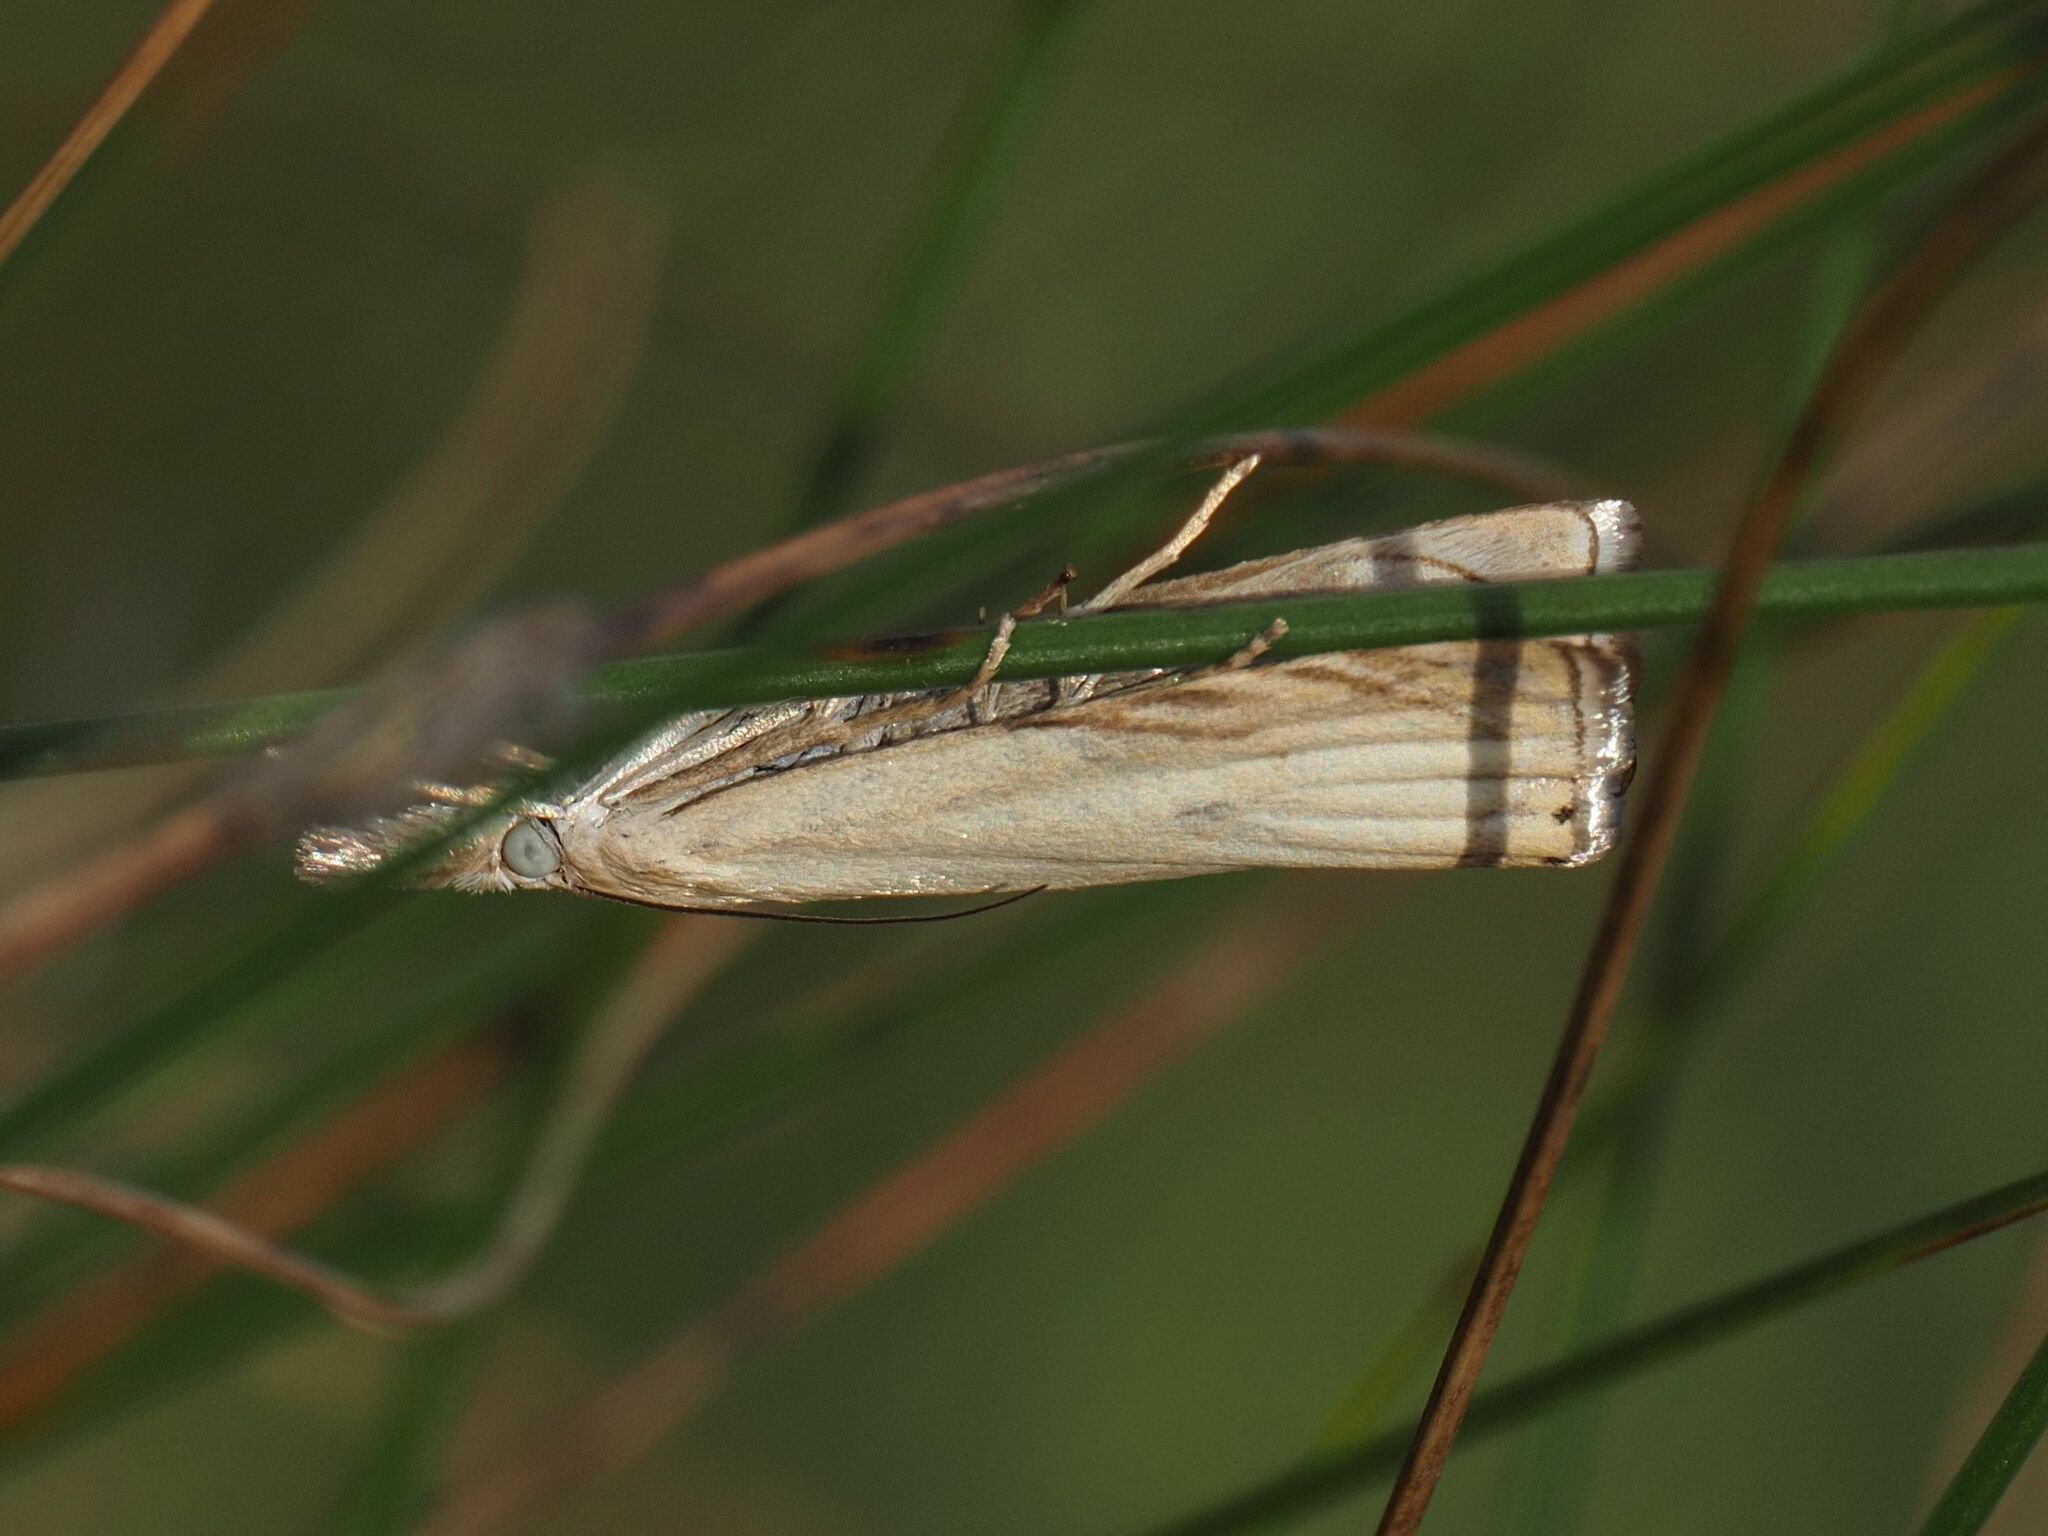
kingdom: Animalia
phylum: Arthropoda
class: Insecta
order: Lepidoptera
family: Crambidae
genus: Chrysoteuchia
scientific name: Chrysoteuchia culmella
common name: Garden grass-veneer
